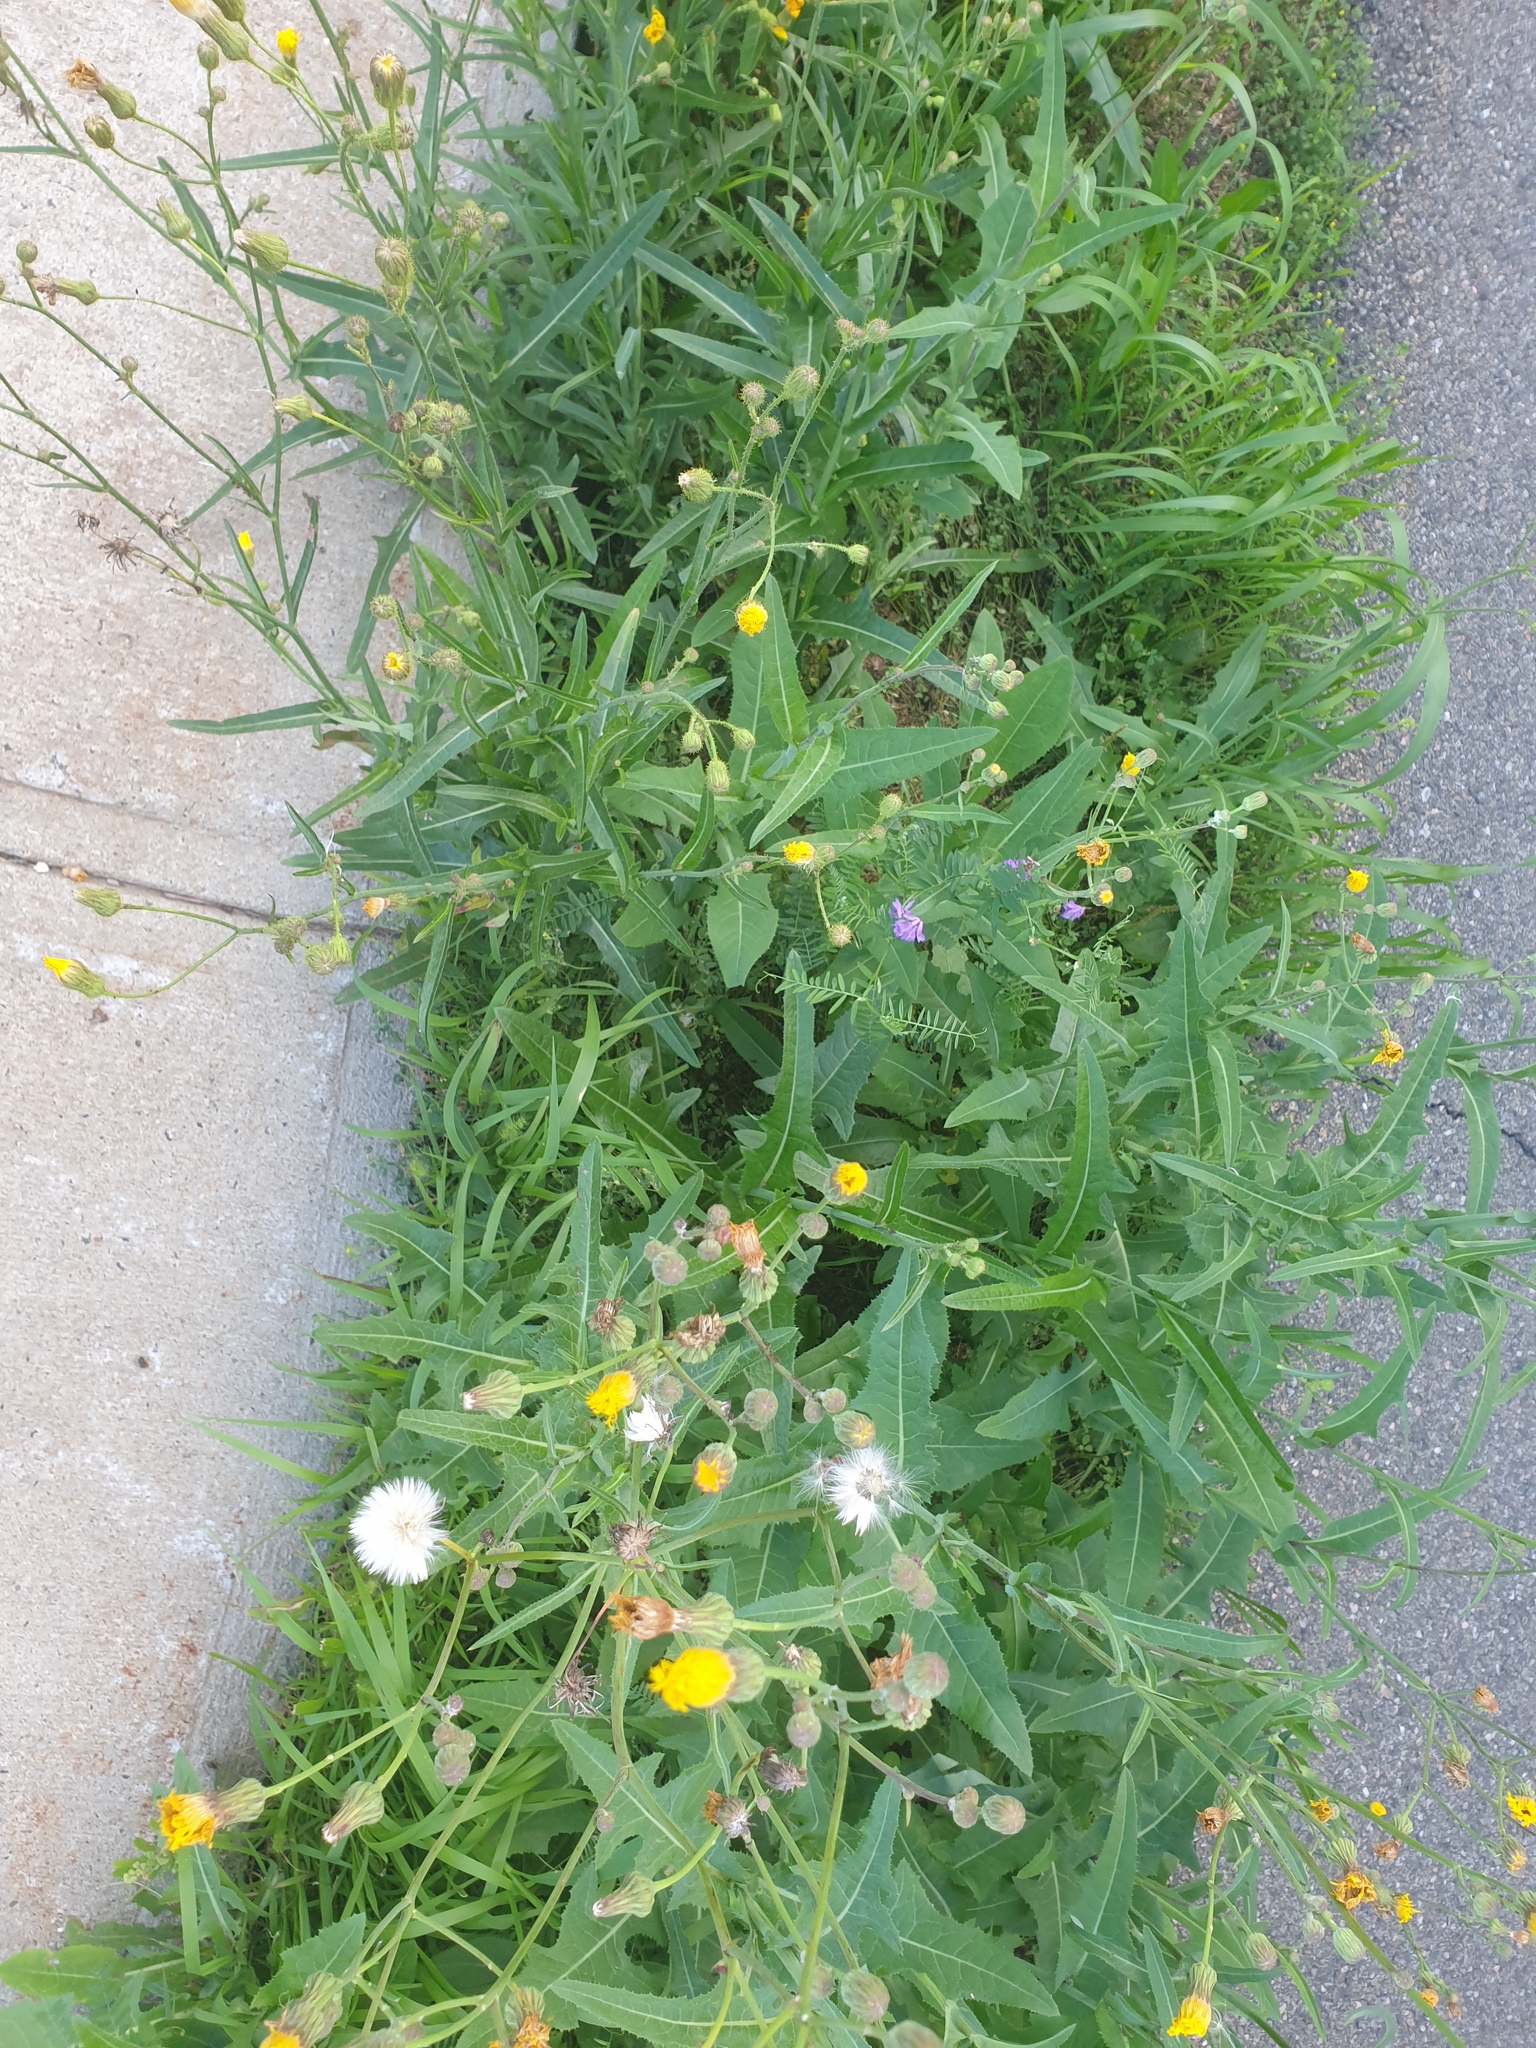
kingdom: Plantae
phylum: Tracheophyta
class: Magnoliopsida
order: Asterales
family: Asteraceae
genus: Sonchus
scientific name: Sonchus arvensis
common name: Perennial sow-thistle
